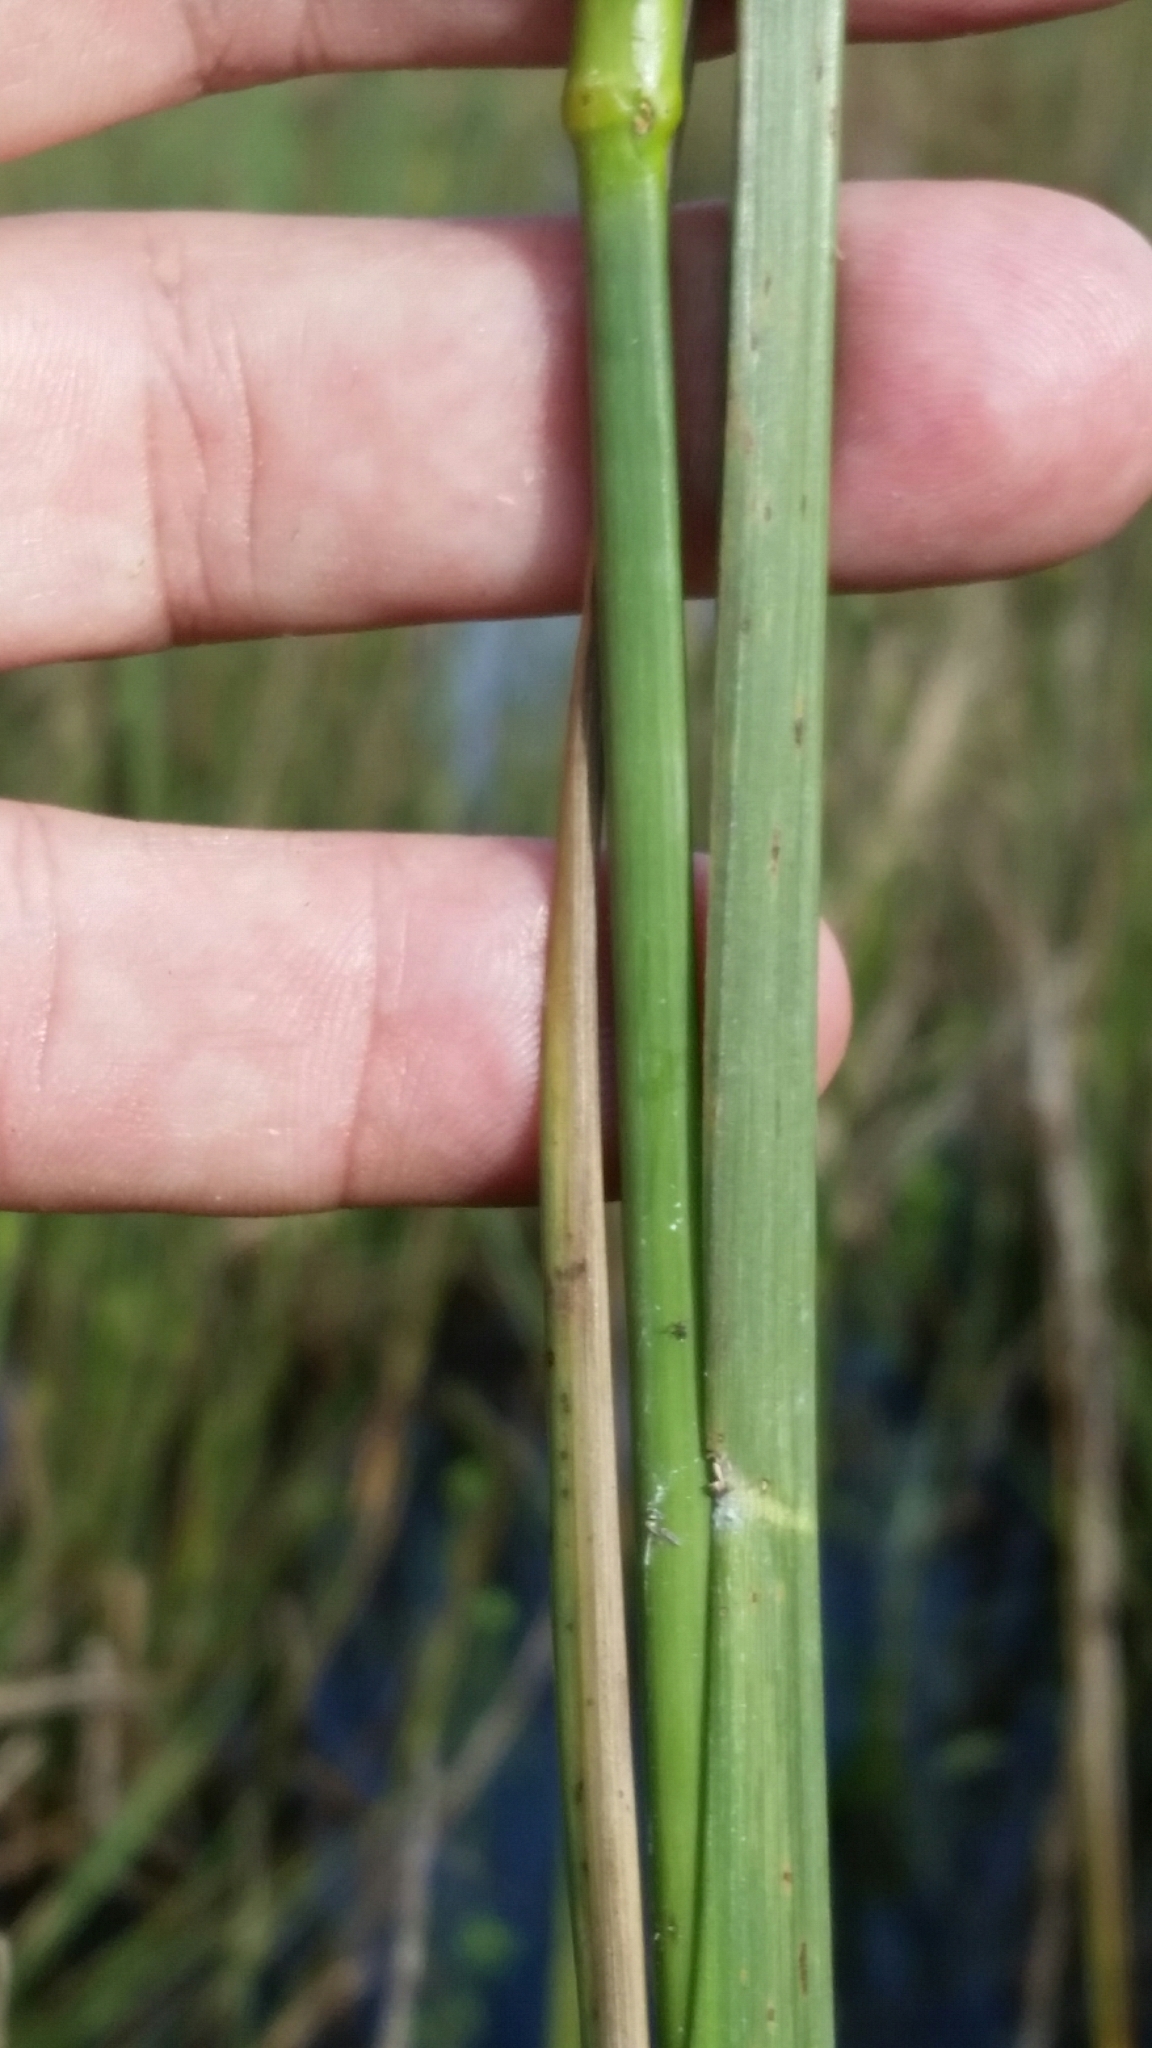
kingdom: Plantae
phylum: Tracheophyta
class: Liliopsida
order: Poales
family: Poaceae
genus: Coleataenia
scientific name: Coleataenia rigidula
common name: Redtop panicgrass
